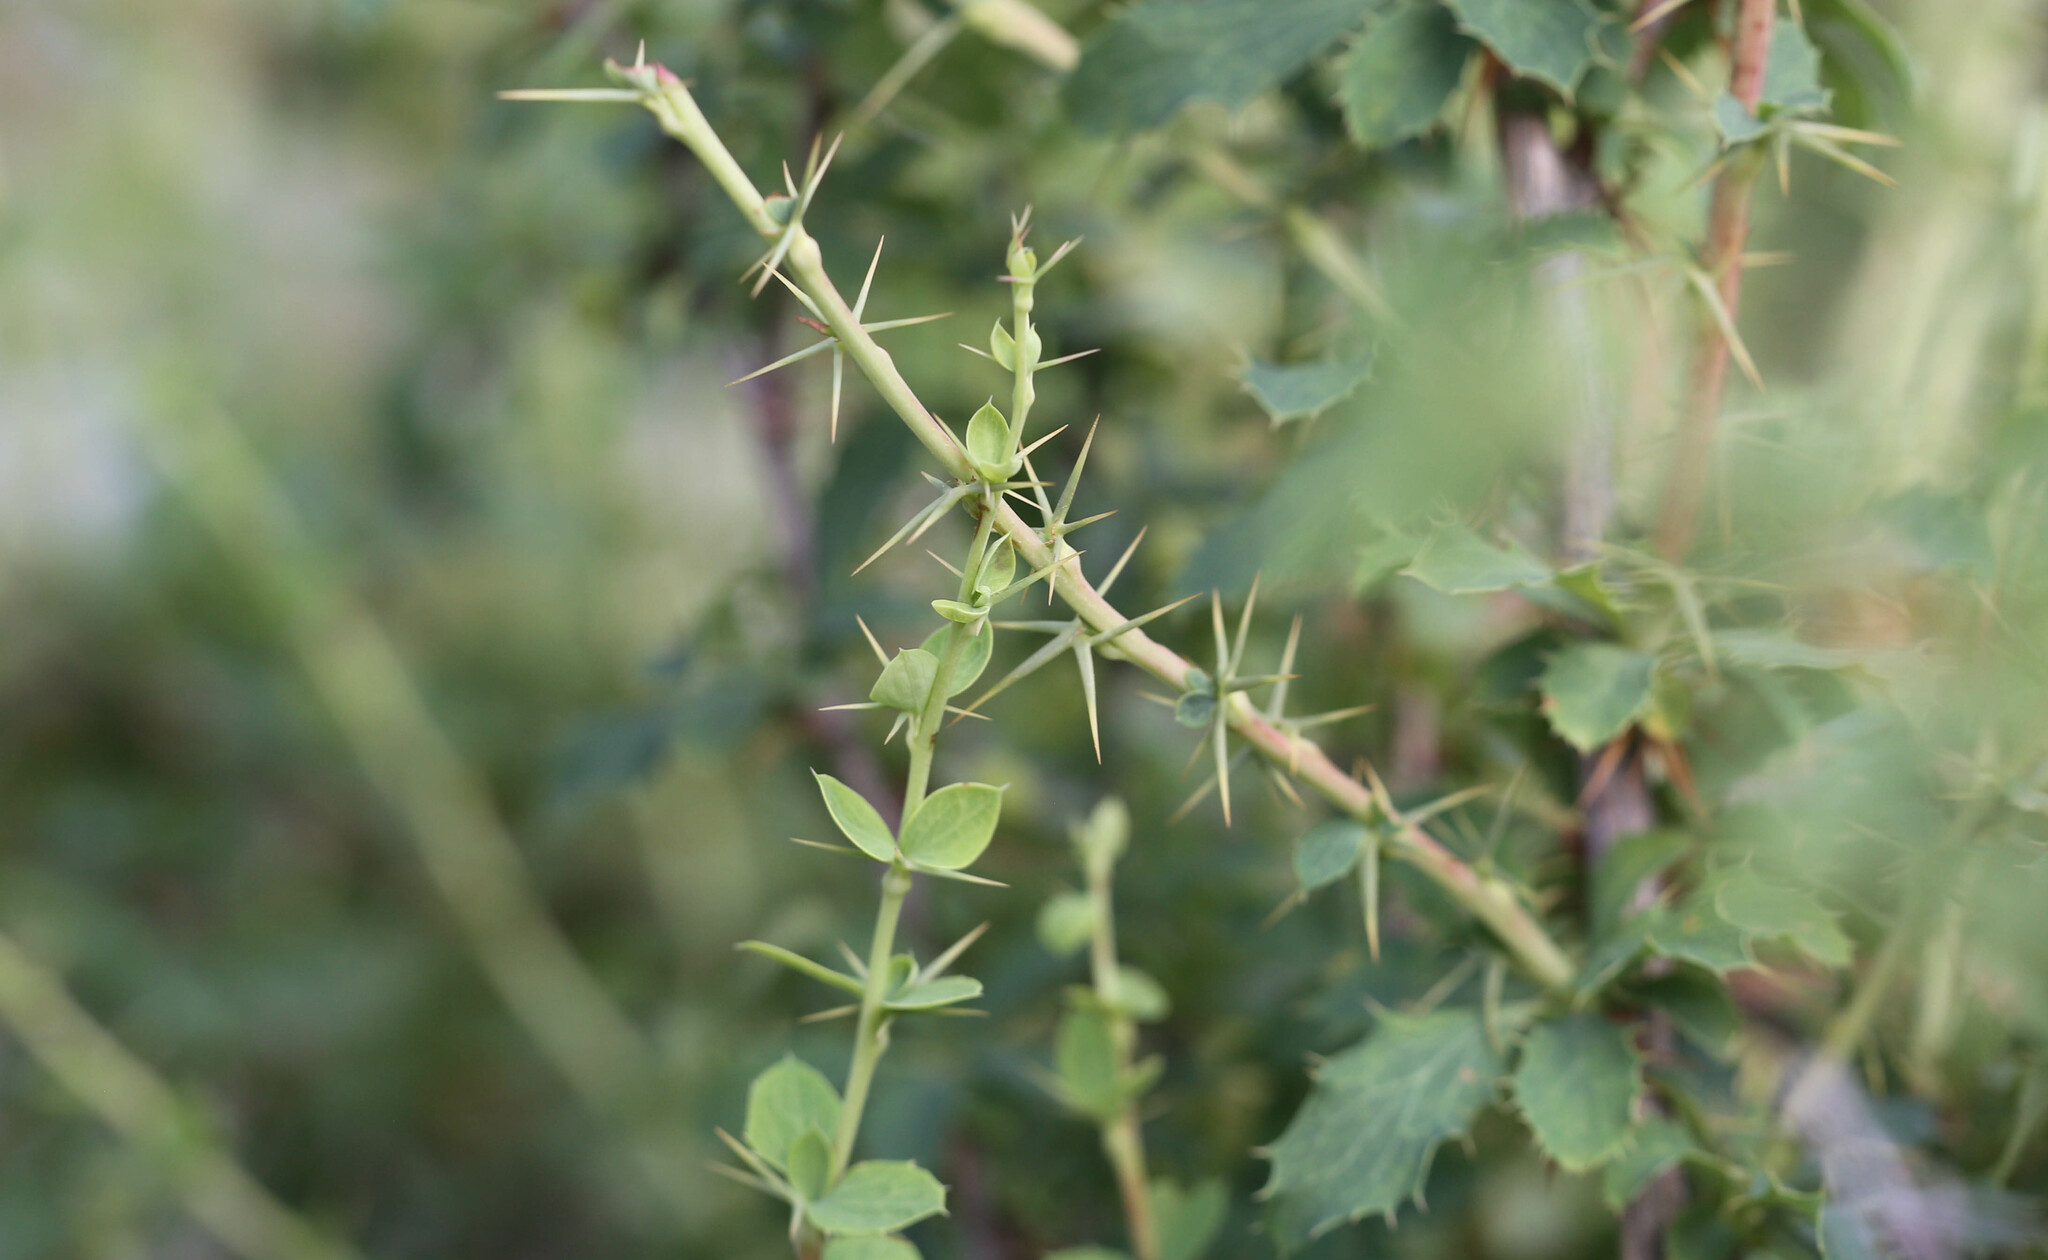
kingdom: Plantae
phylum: Tracheophyta
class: Magnoliopsida
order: Ranunculales
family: Berberidaceae
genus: Berberis
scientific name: Berberis sibirica
